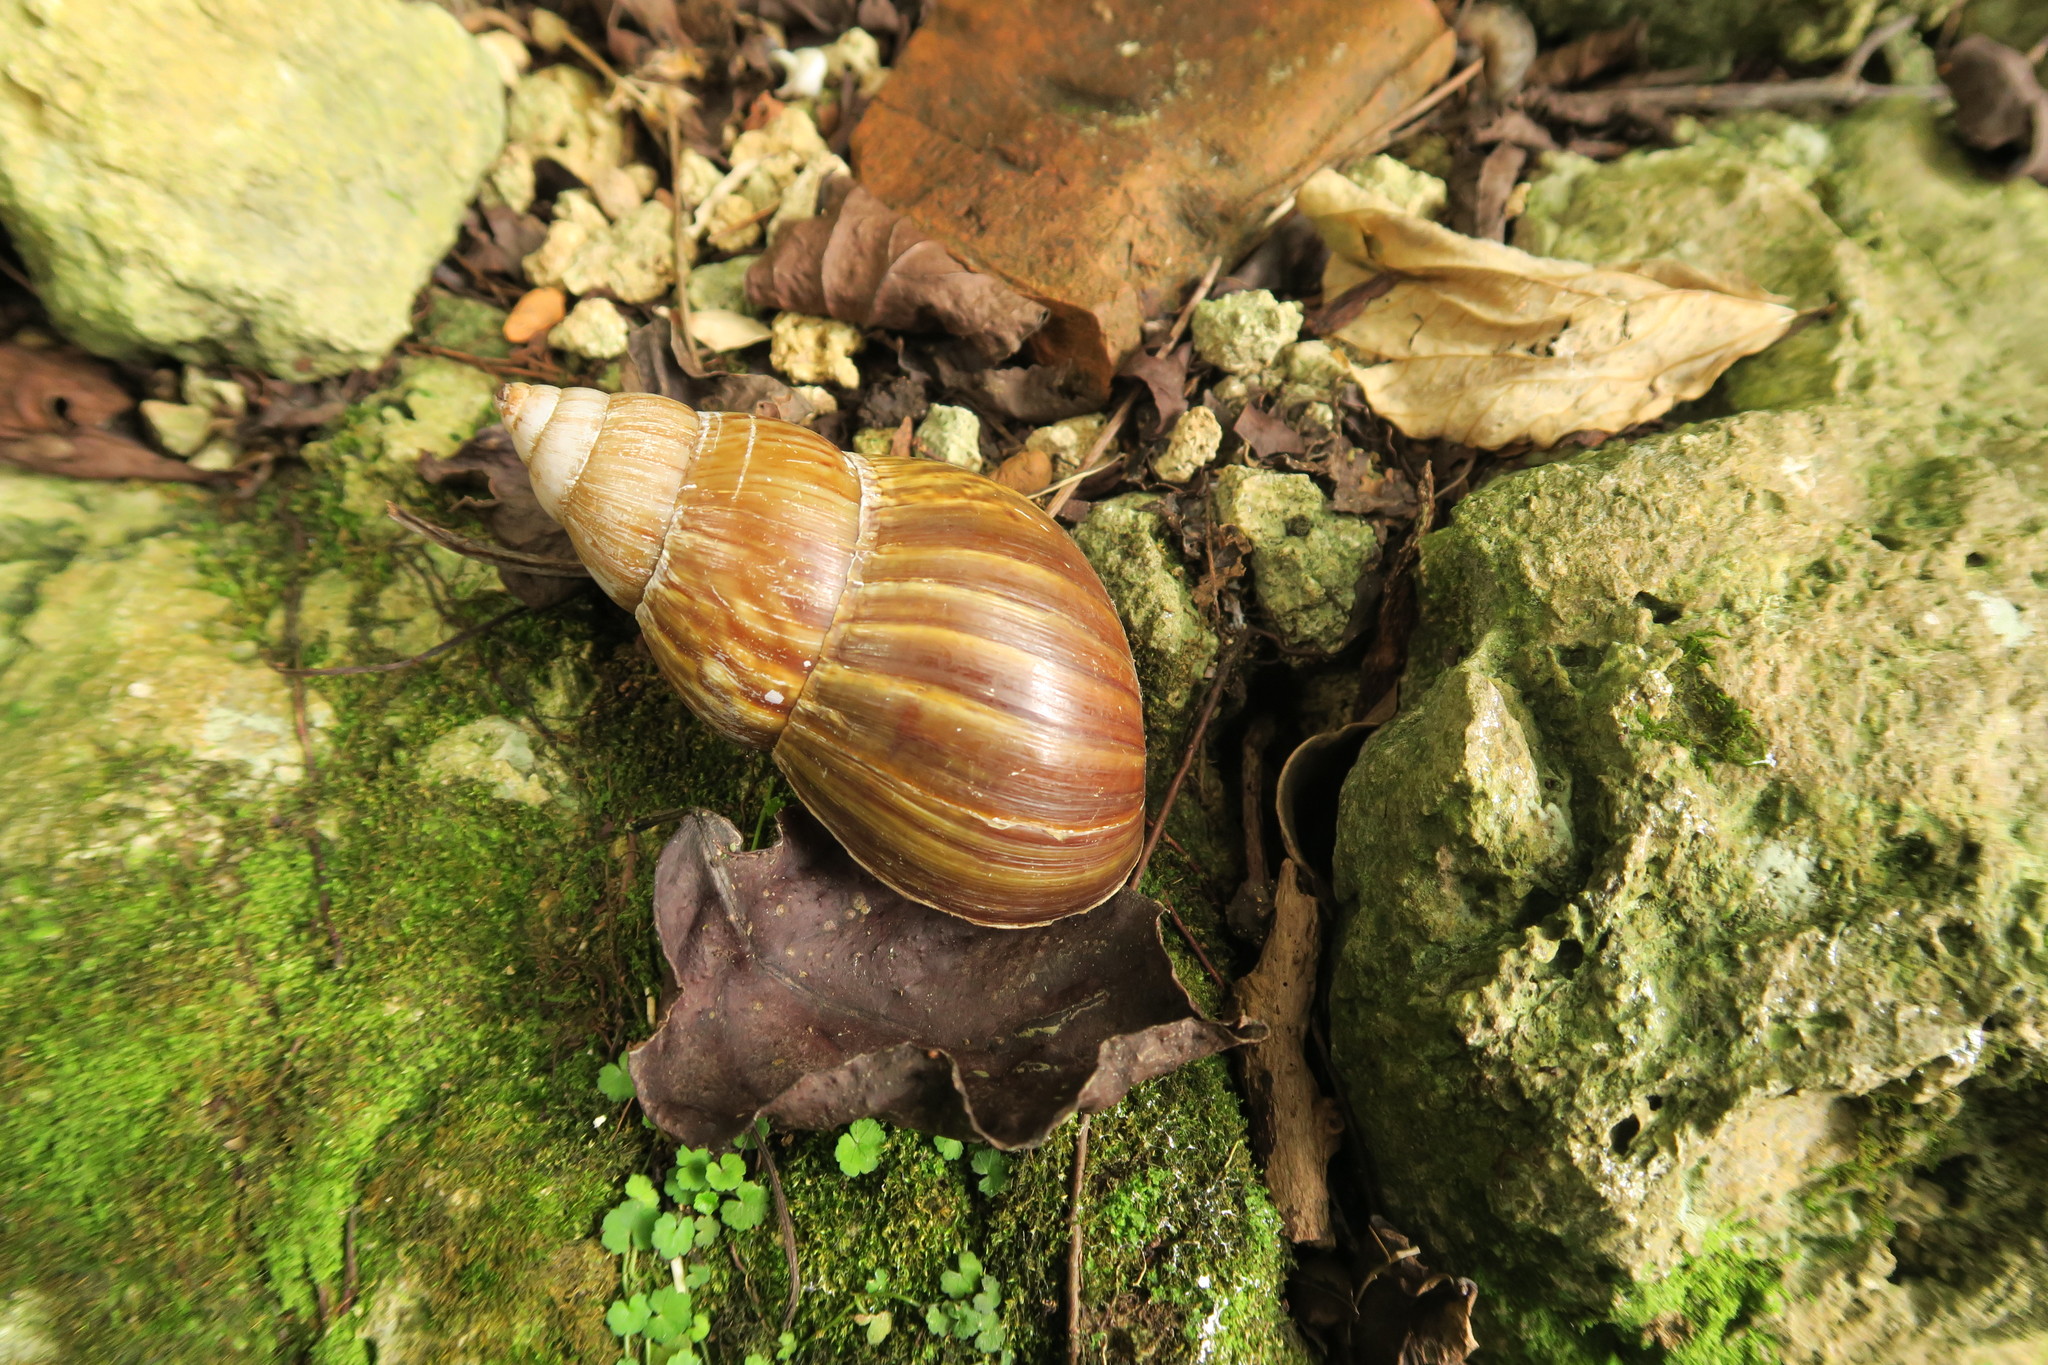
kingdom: Animalia
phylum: Mollusca
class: Gastropoda
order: Stylommatophora
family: Achatinidae
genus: Lissachatina
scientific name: Lissachatina fulica
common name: Giant african snail
